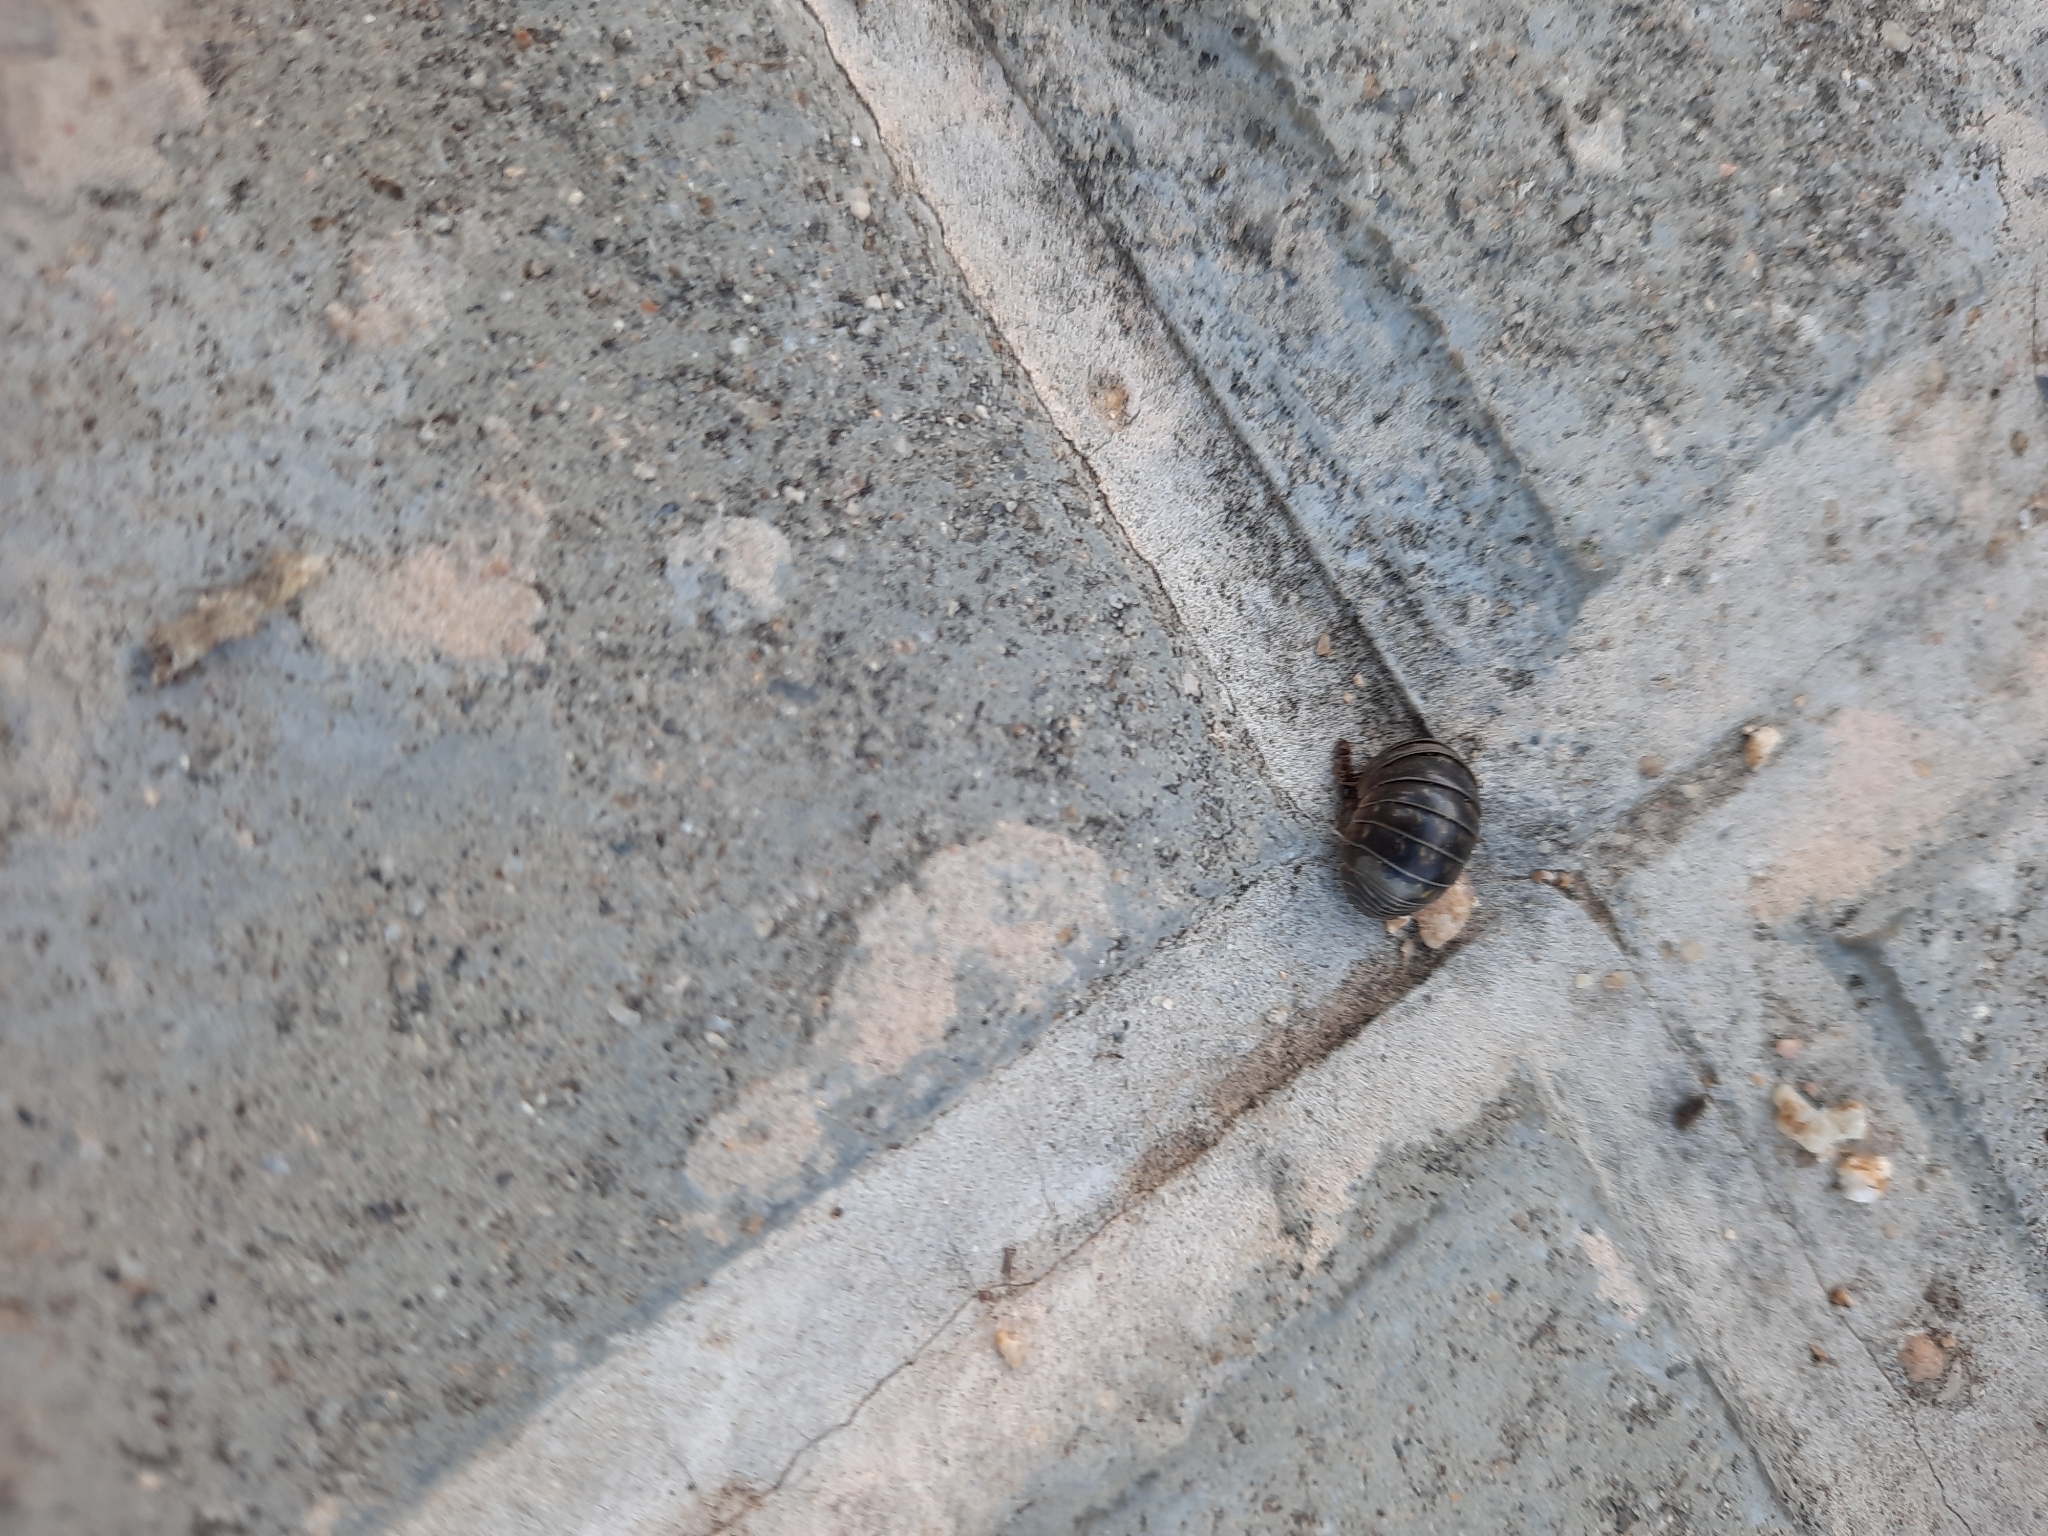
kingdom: Animalia
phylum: Arthropoda
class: Malacostraca
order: Isopoda
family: Armadillidiidae
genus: Armadillidium
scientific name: Armadillidium vulgare
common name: Common pill woodlouse
